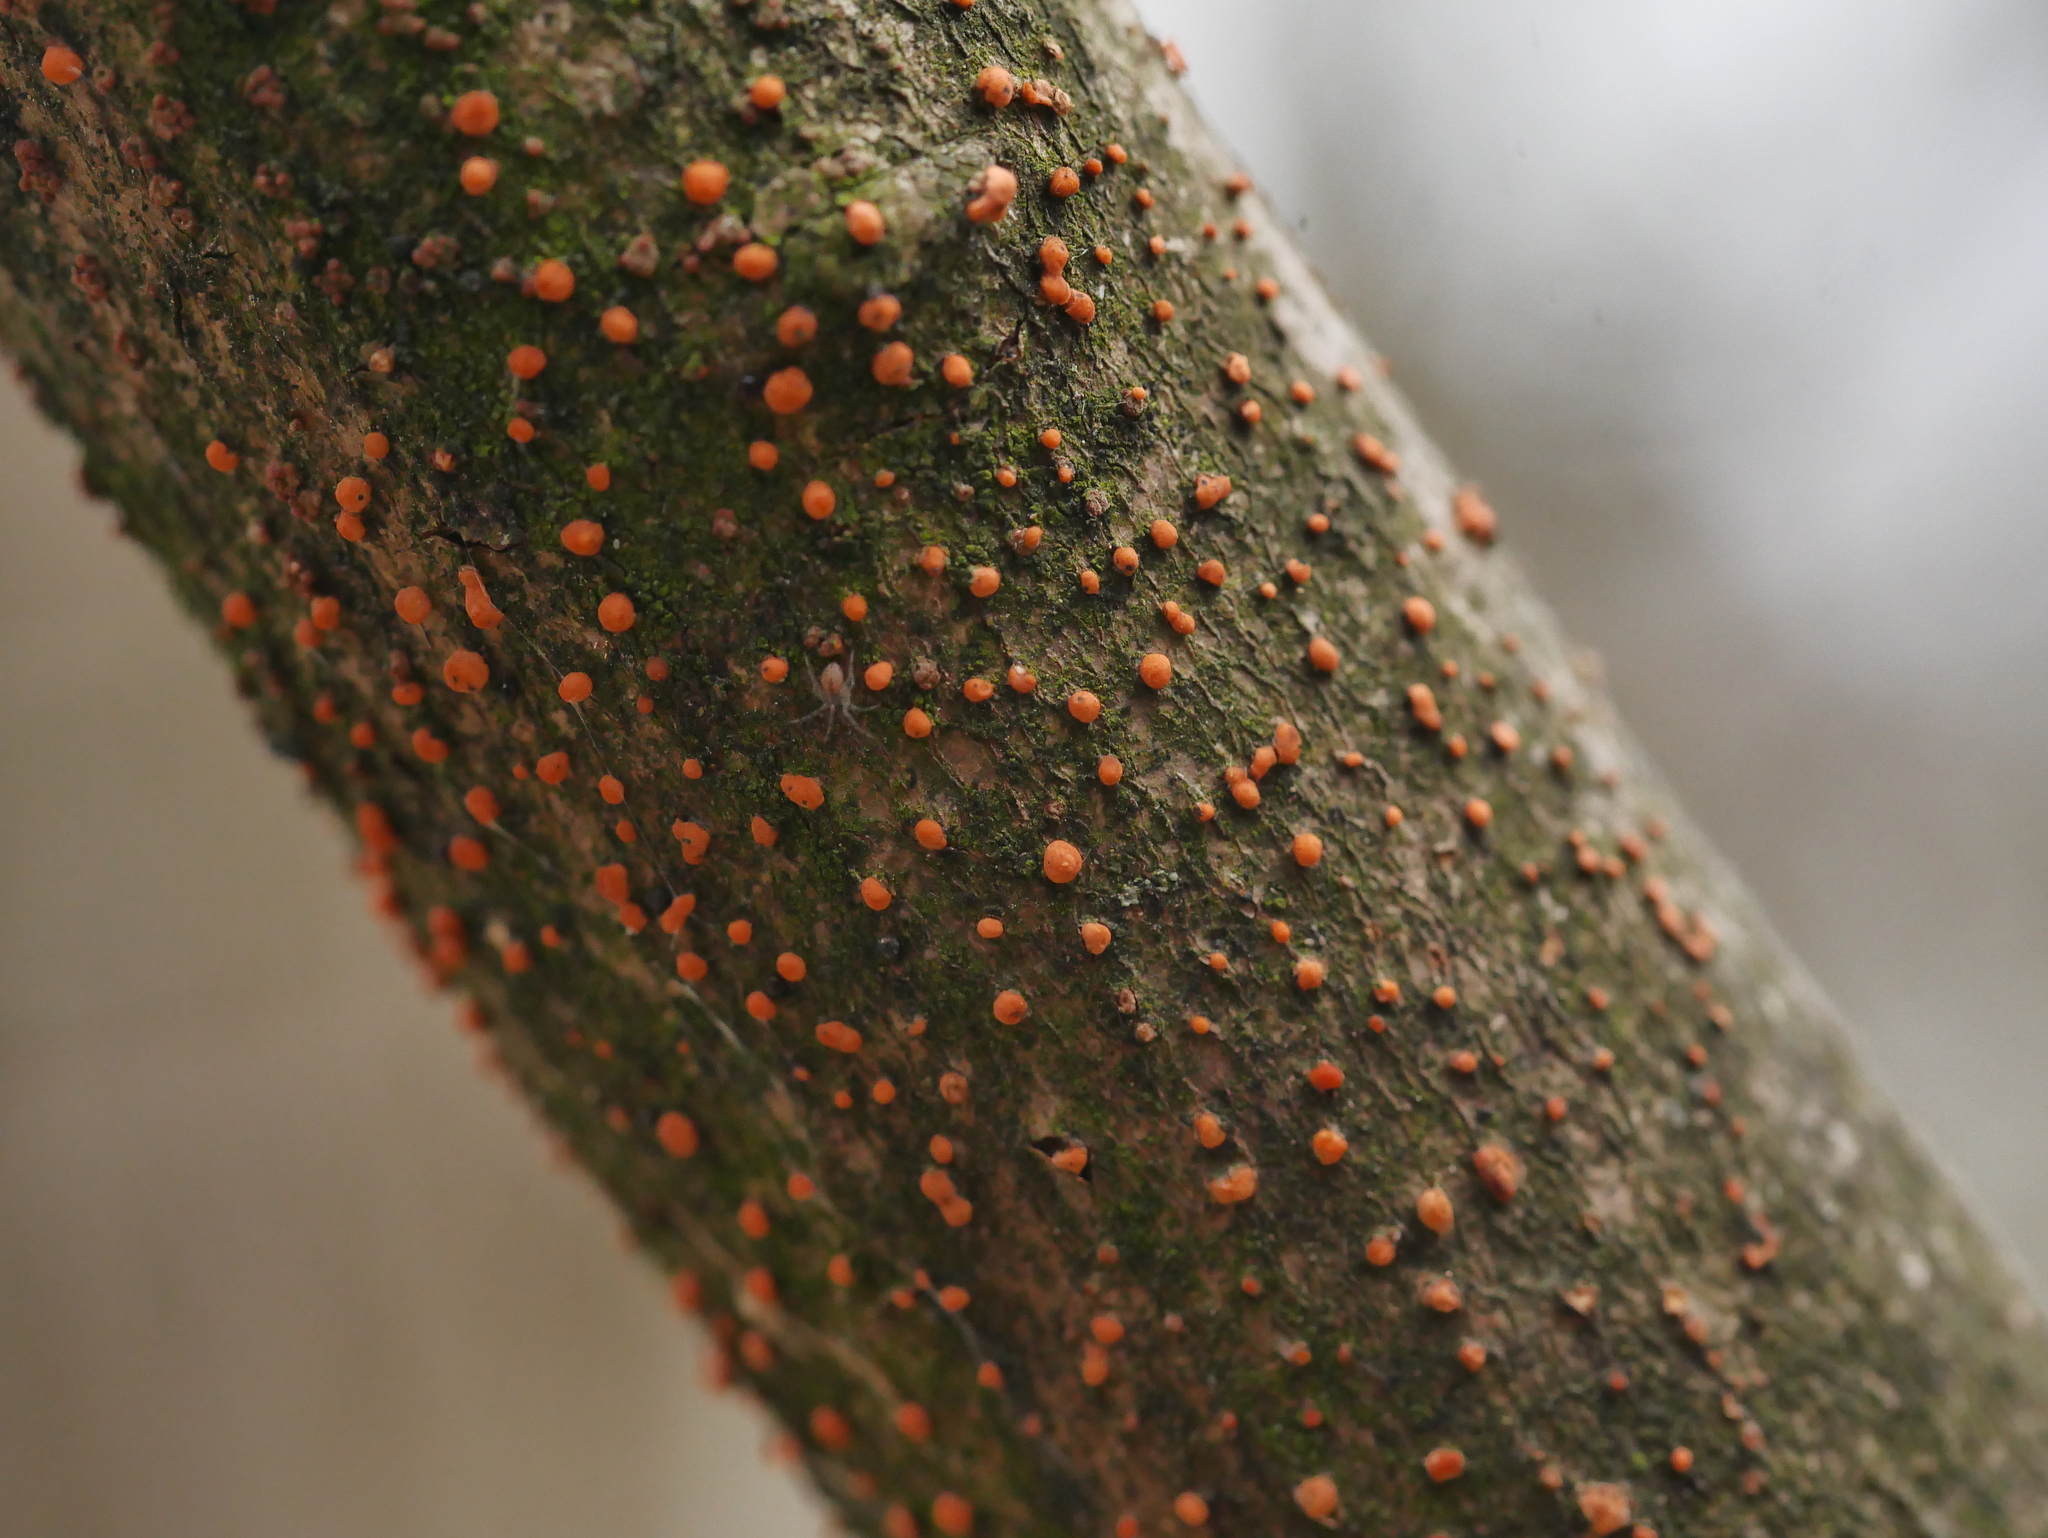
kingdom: Fungi
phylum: Ascomycota
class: Sordariomycetes
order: Hypocreales
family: Nectriaceae
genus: Nectria
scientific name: Nectria cinnabarina
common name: Coral spot
